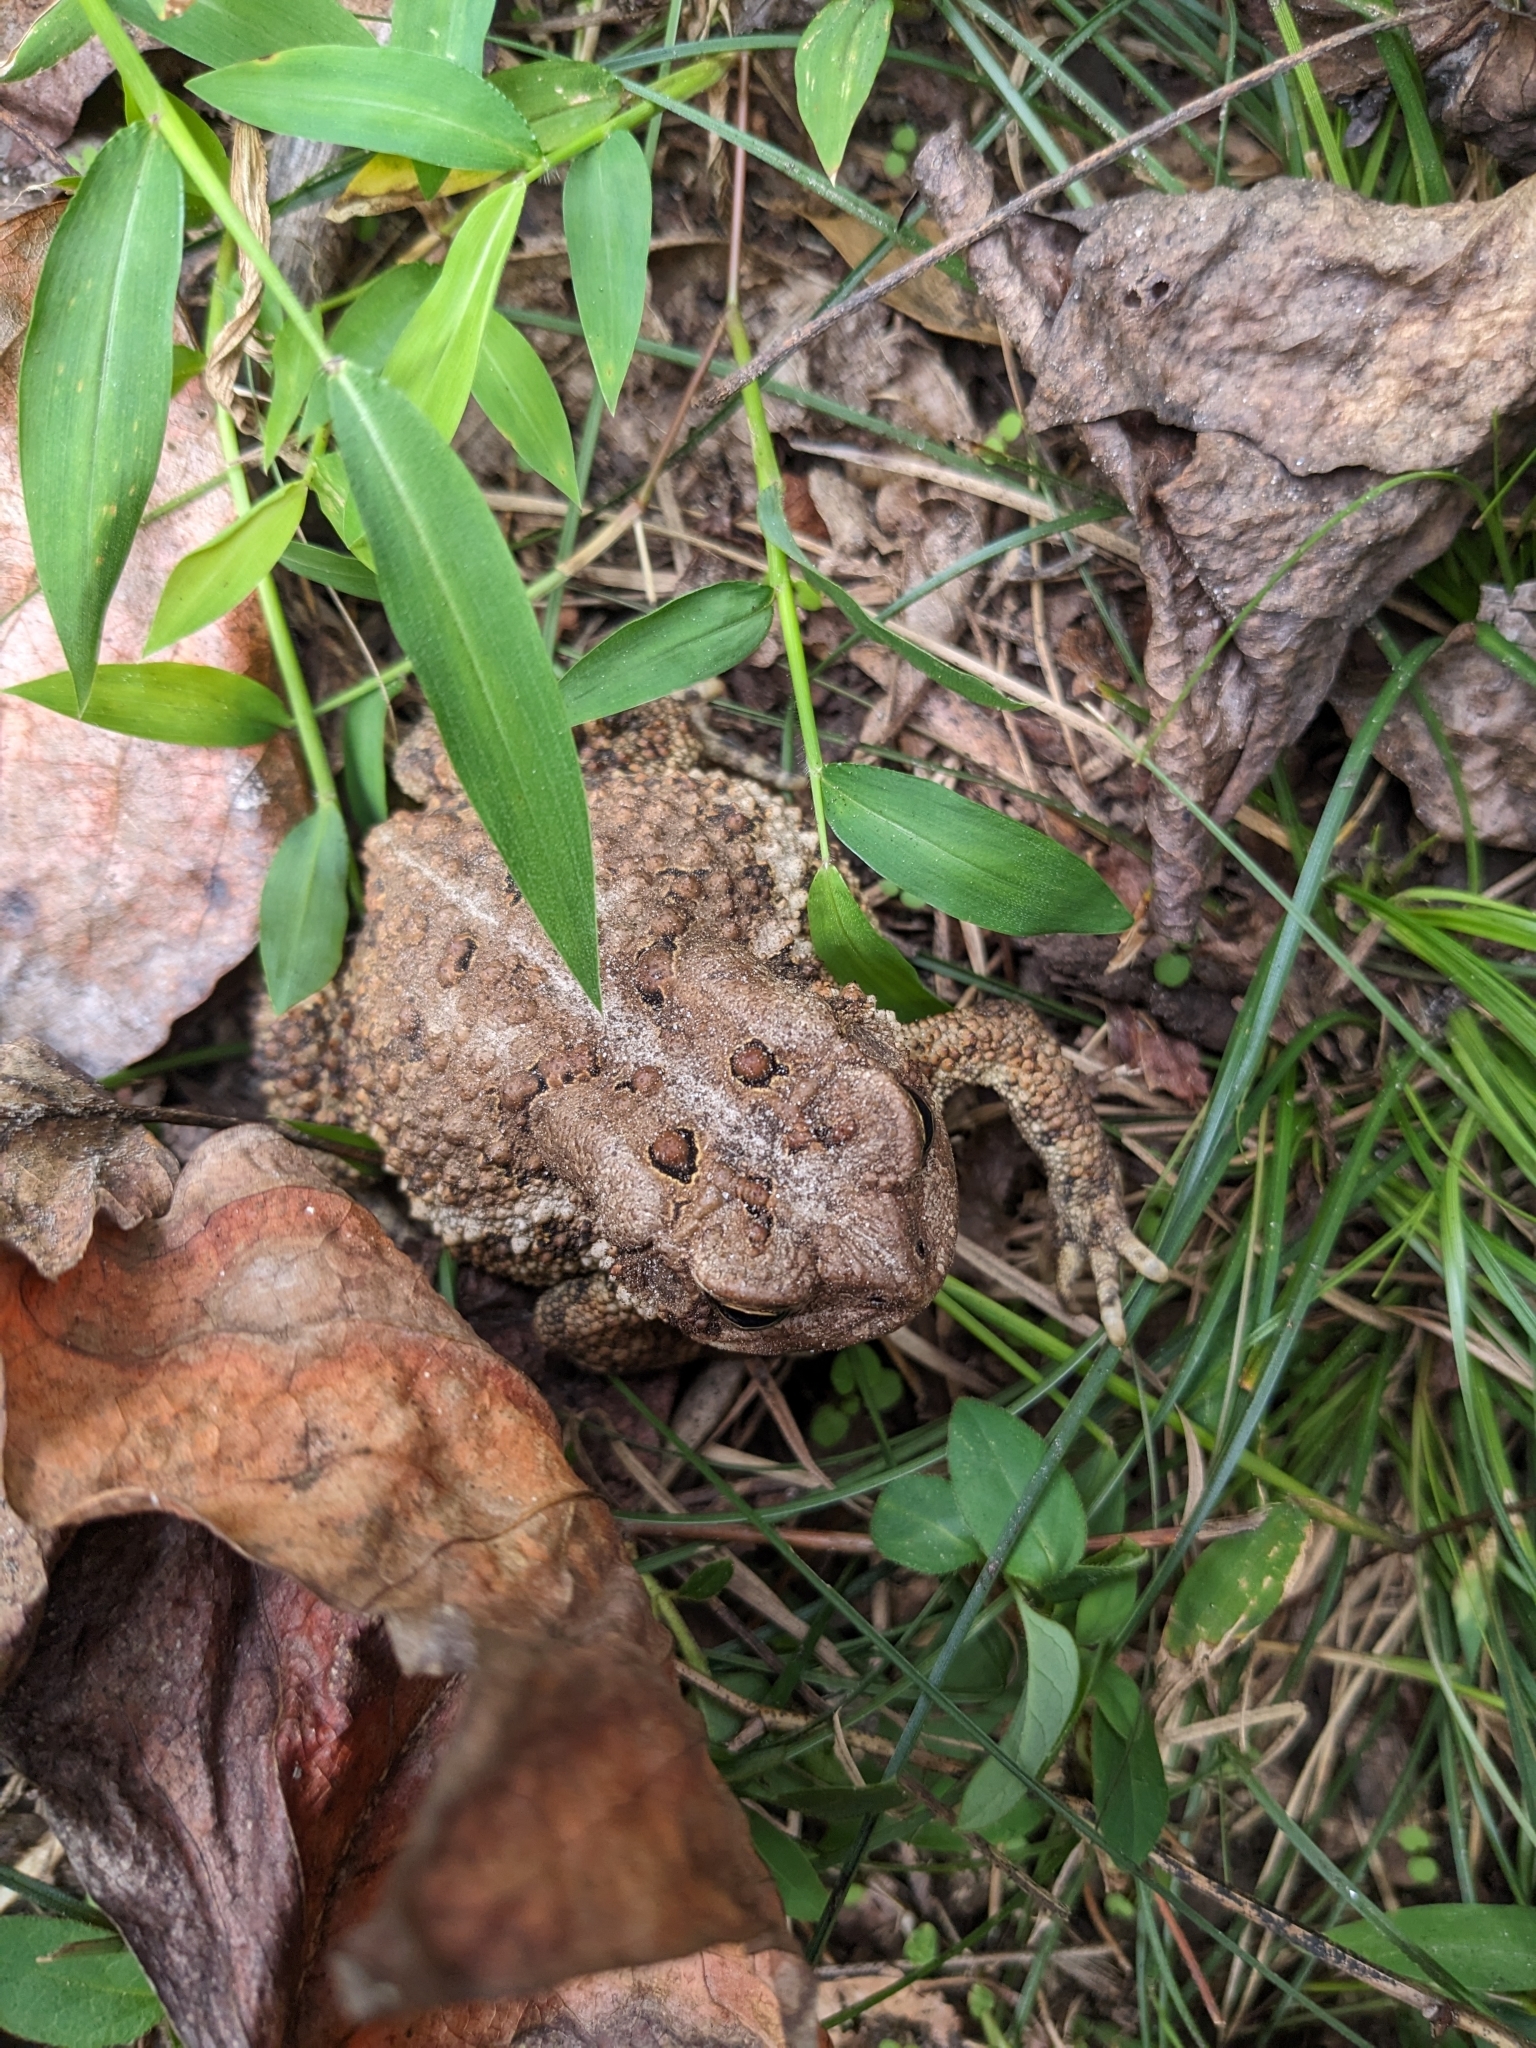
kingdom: Animalia
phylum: Chordata
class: Amphibia
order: Anura
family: Bufonidae
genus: Anaxyrus
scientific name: Anaxyrus americanus
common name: American toad
